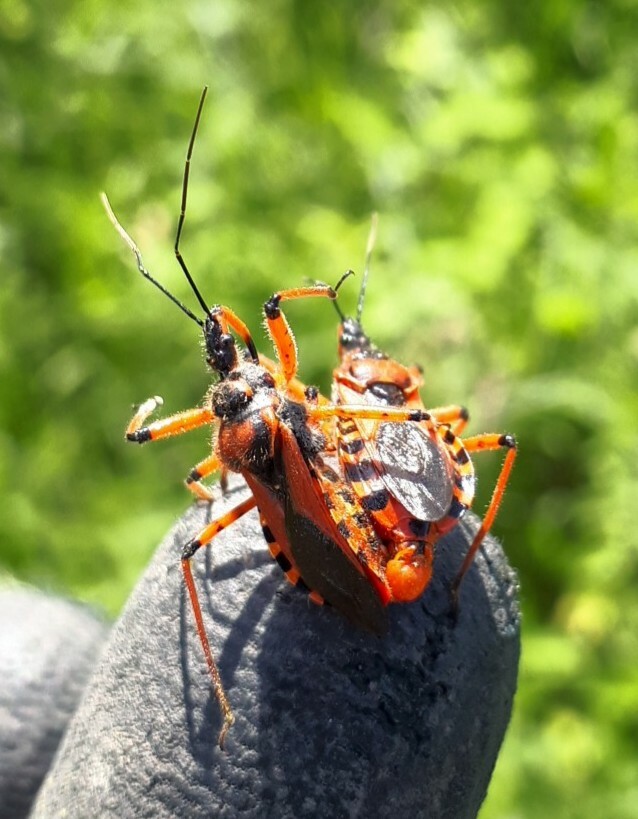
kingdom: Animalia
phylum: Arthropoda
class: Insecta
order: Hemiptera
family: Reduviidae
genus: Rhynocoris
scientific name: Rhynocoris iracundus
